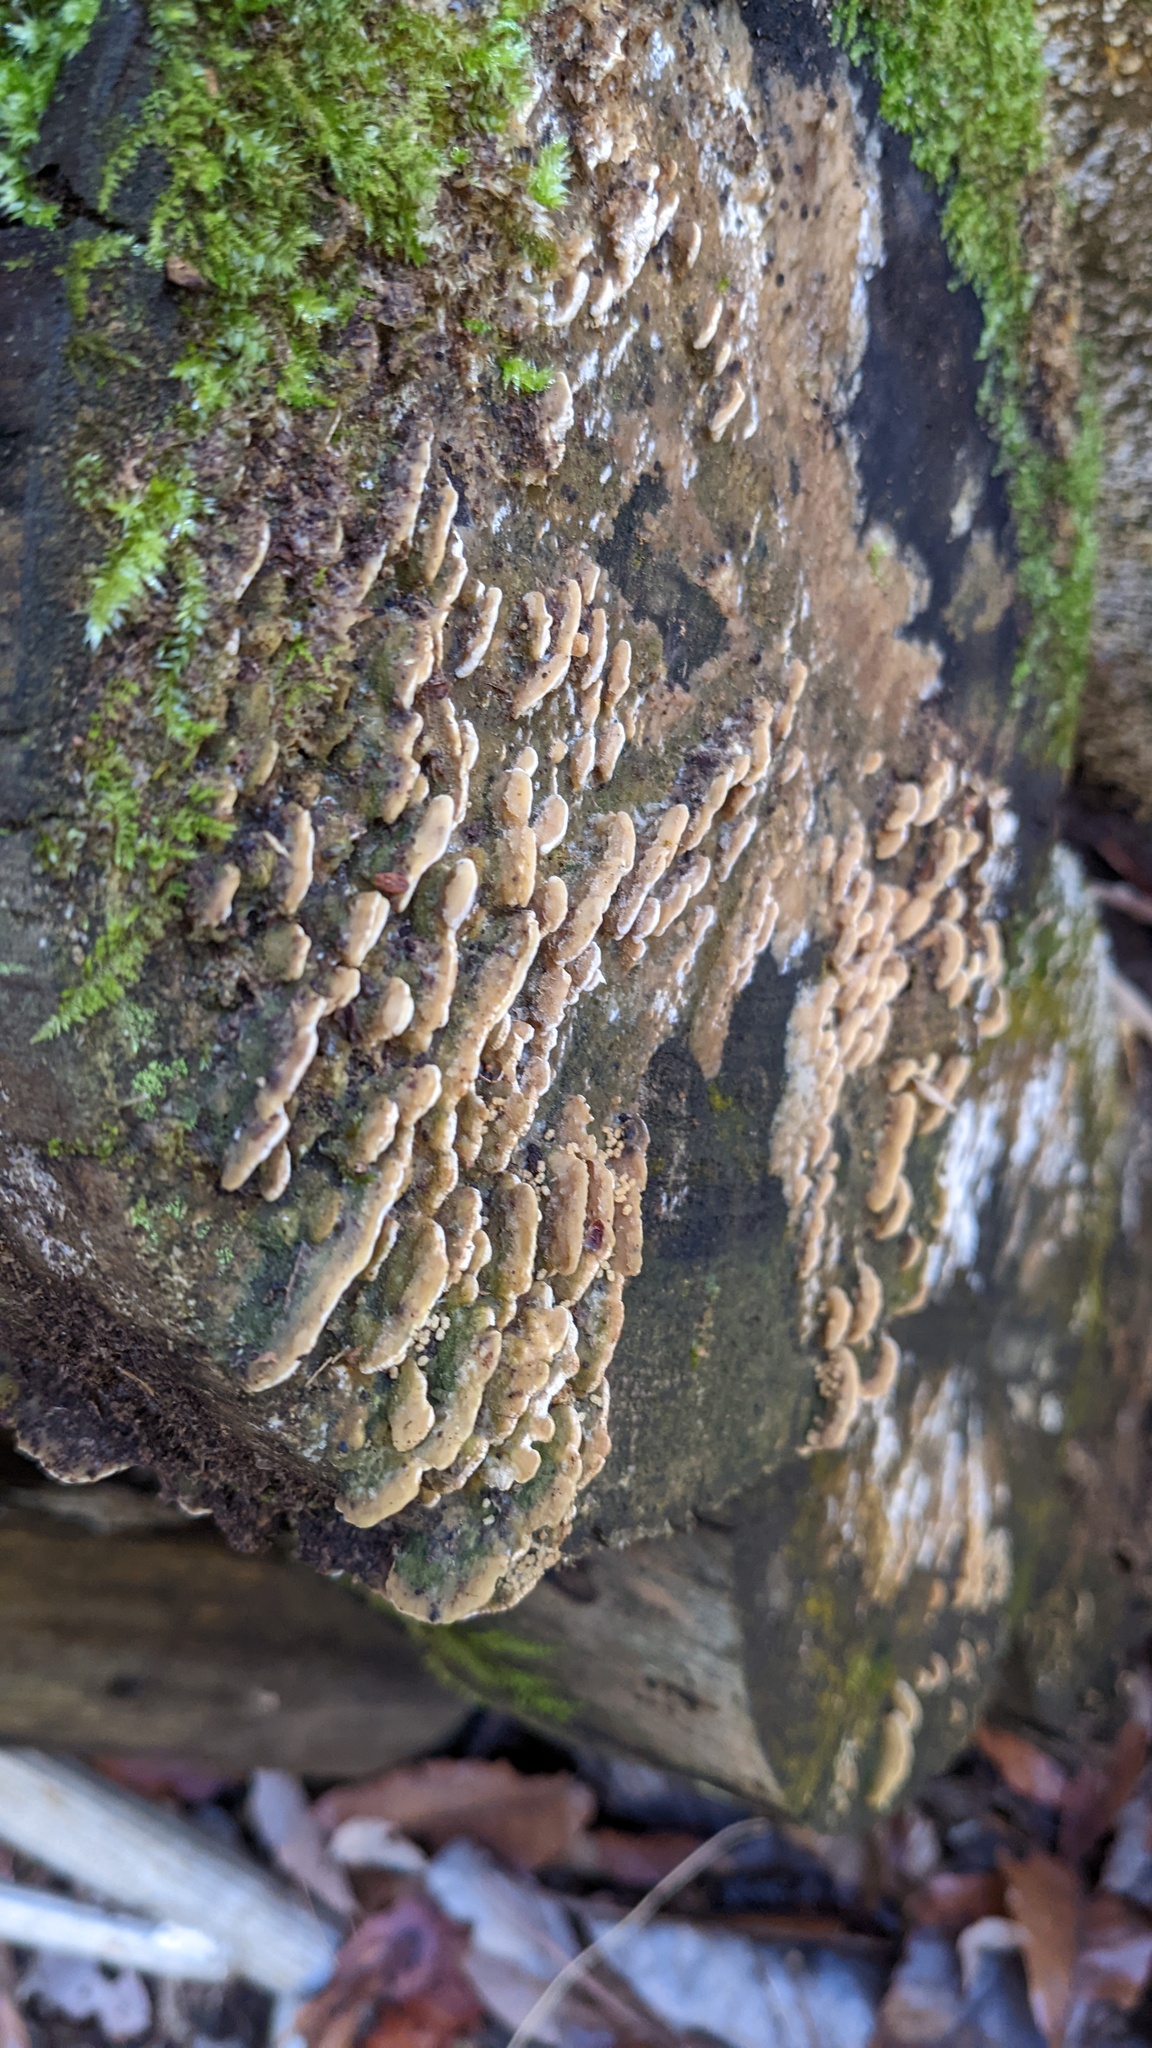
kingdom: Fungi
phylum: Basidiomycota
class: Agaricomycetes
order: Hymenochaetales
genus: Cyanotrama
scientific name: Cyanotrama
